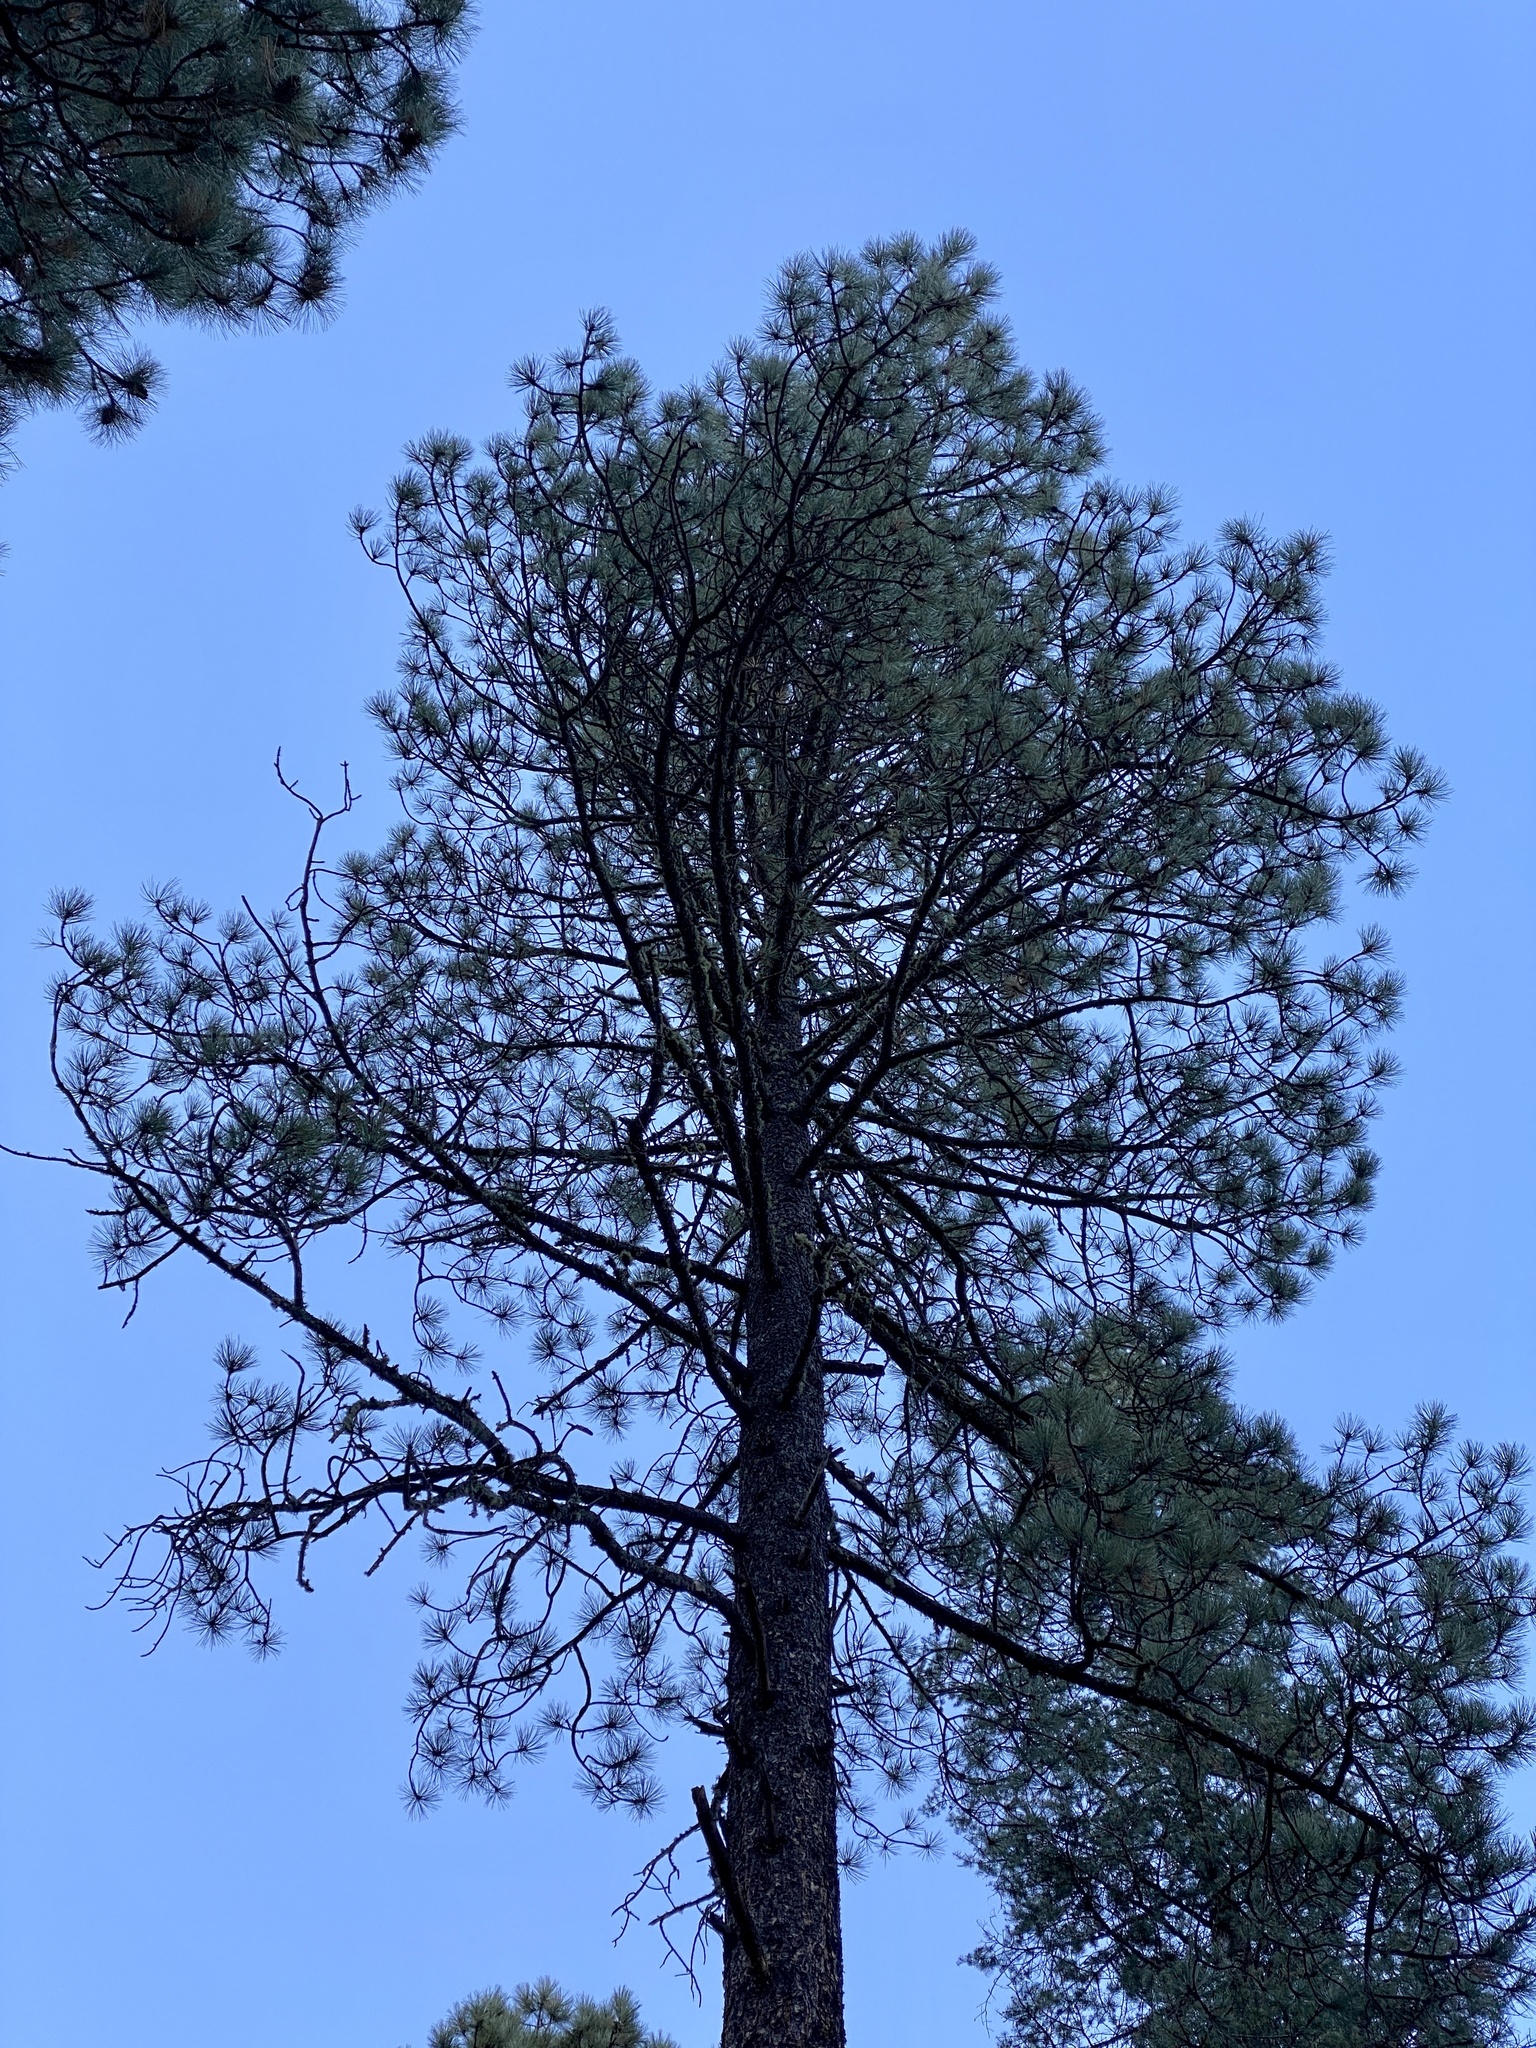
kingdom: Plantae
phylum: Tracheophyta
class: Pinopsida
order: Pinales
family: Pinaceae
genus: Pinus
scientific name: Pinus ponderosa
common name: Western yellow-pine
